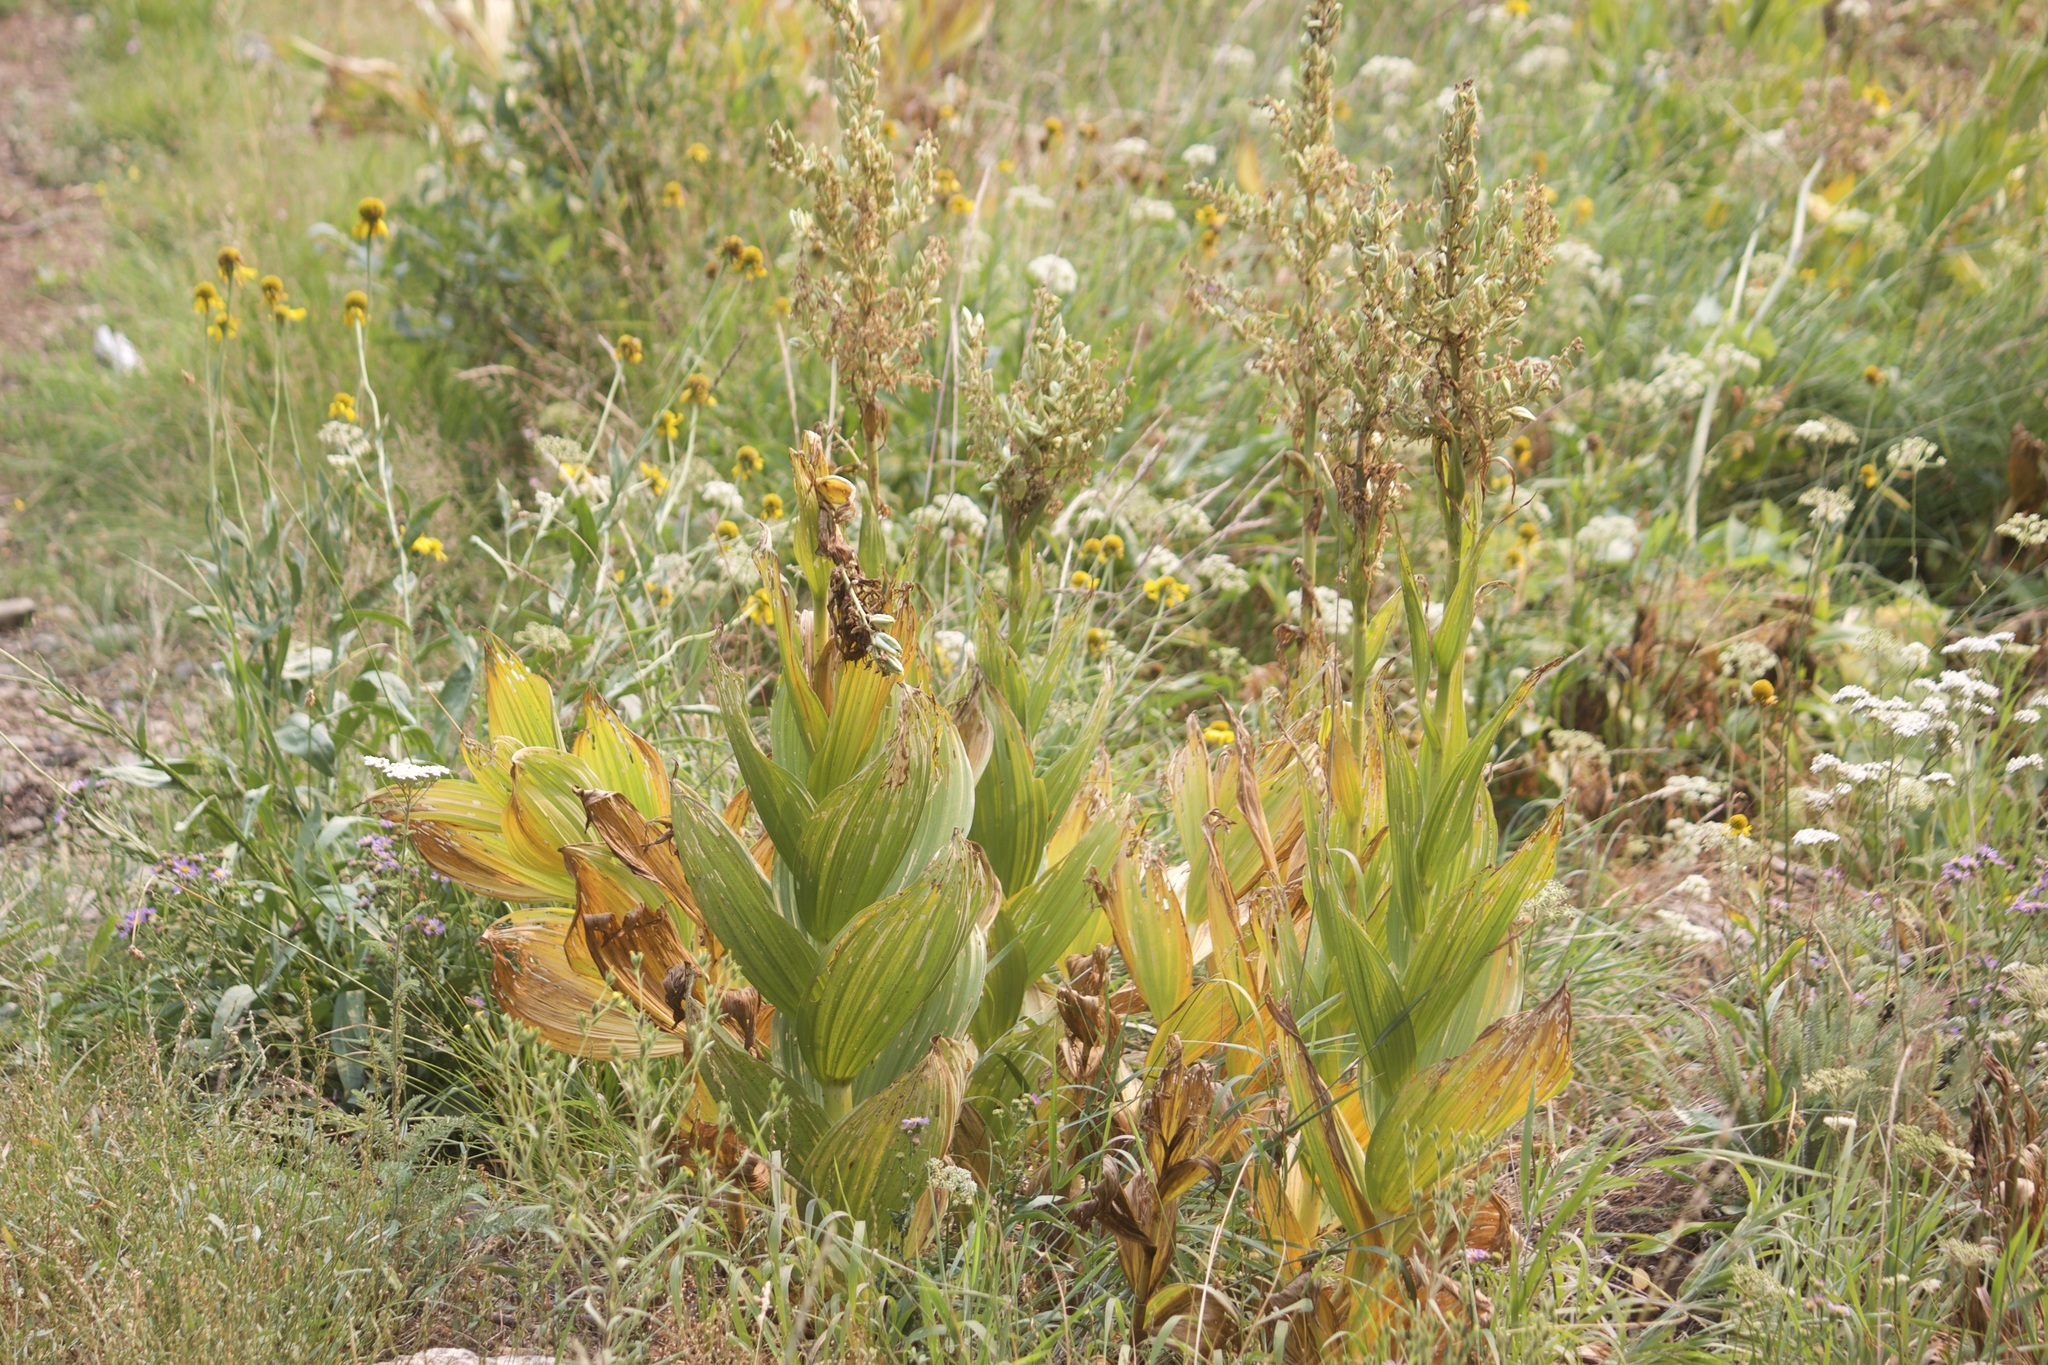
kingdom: Plantae
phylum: Tracheophyta
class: Liliopsida
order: Liliales
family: Melanthiaceae
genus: Veratrum
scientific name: Veratrum californicum
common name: California veratrum
